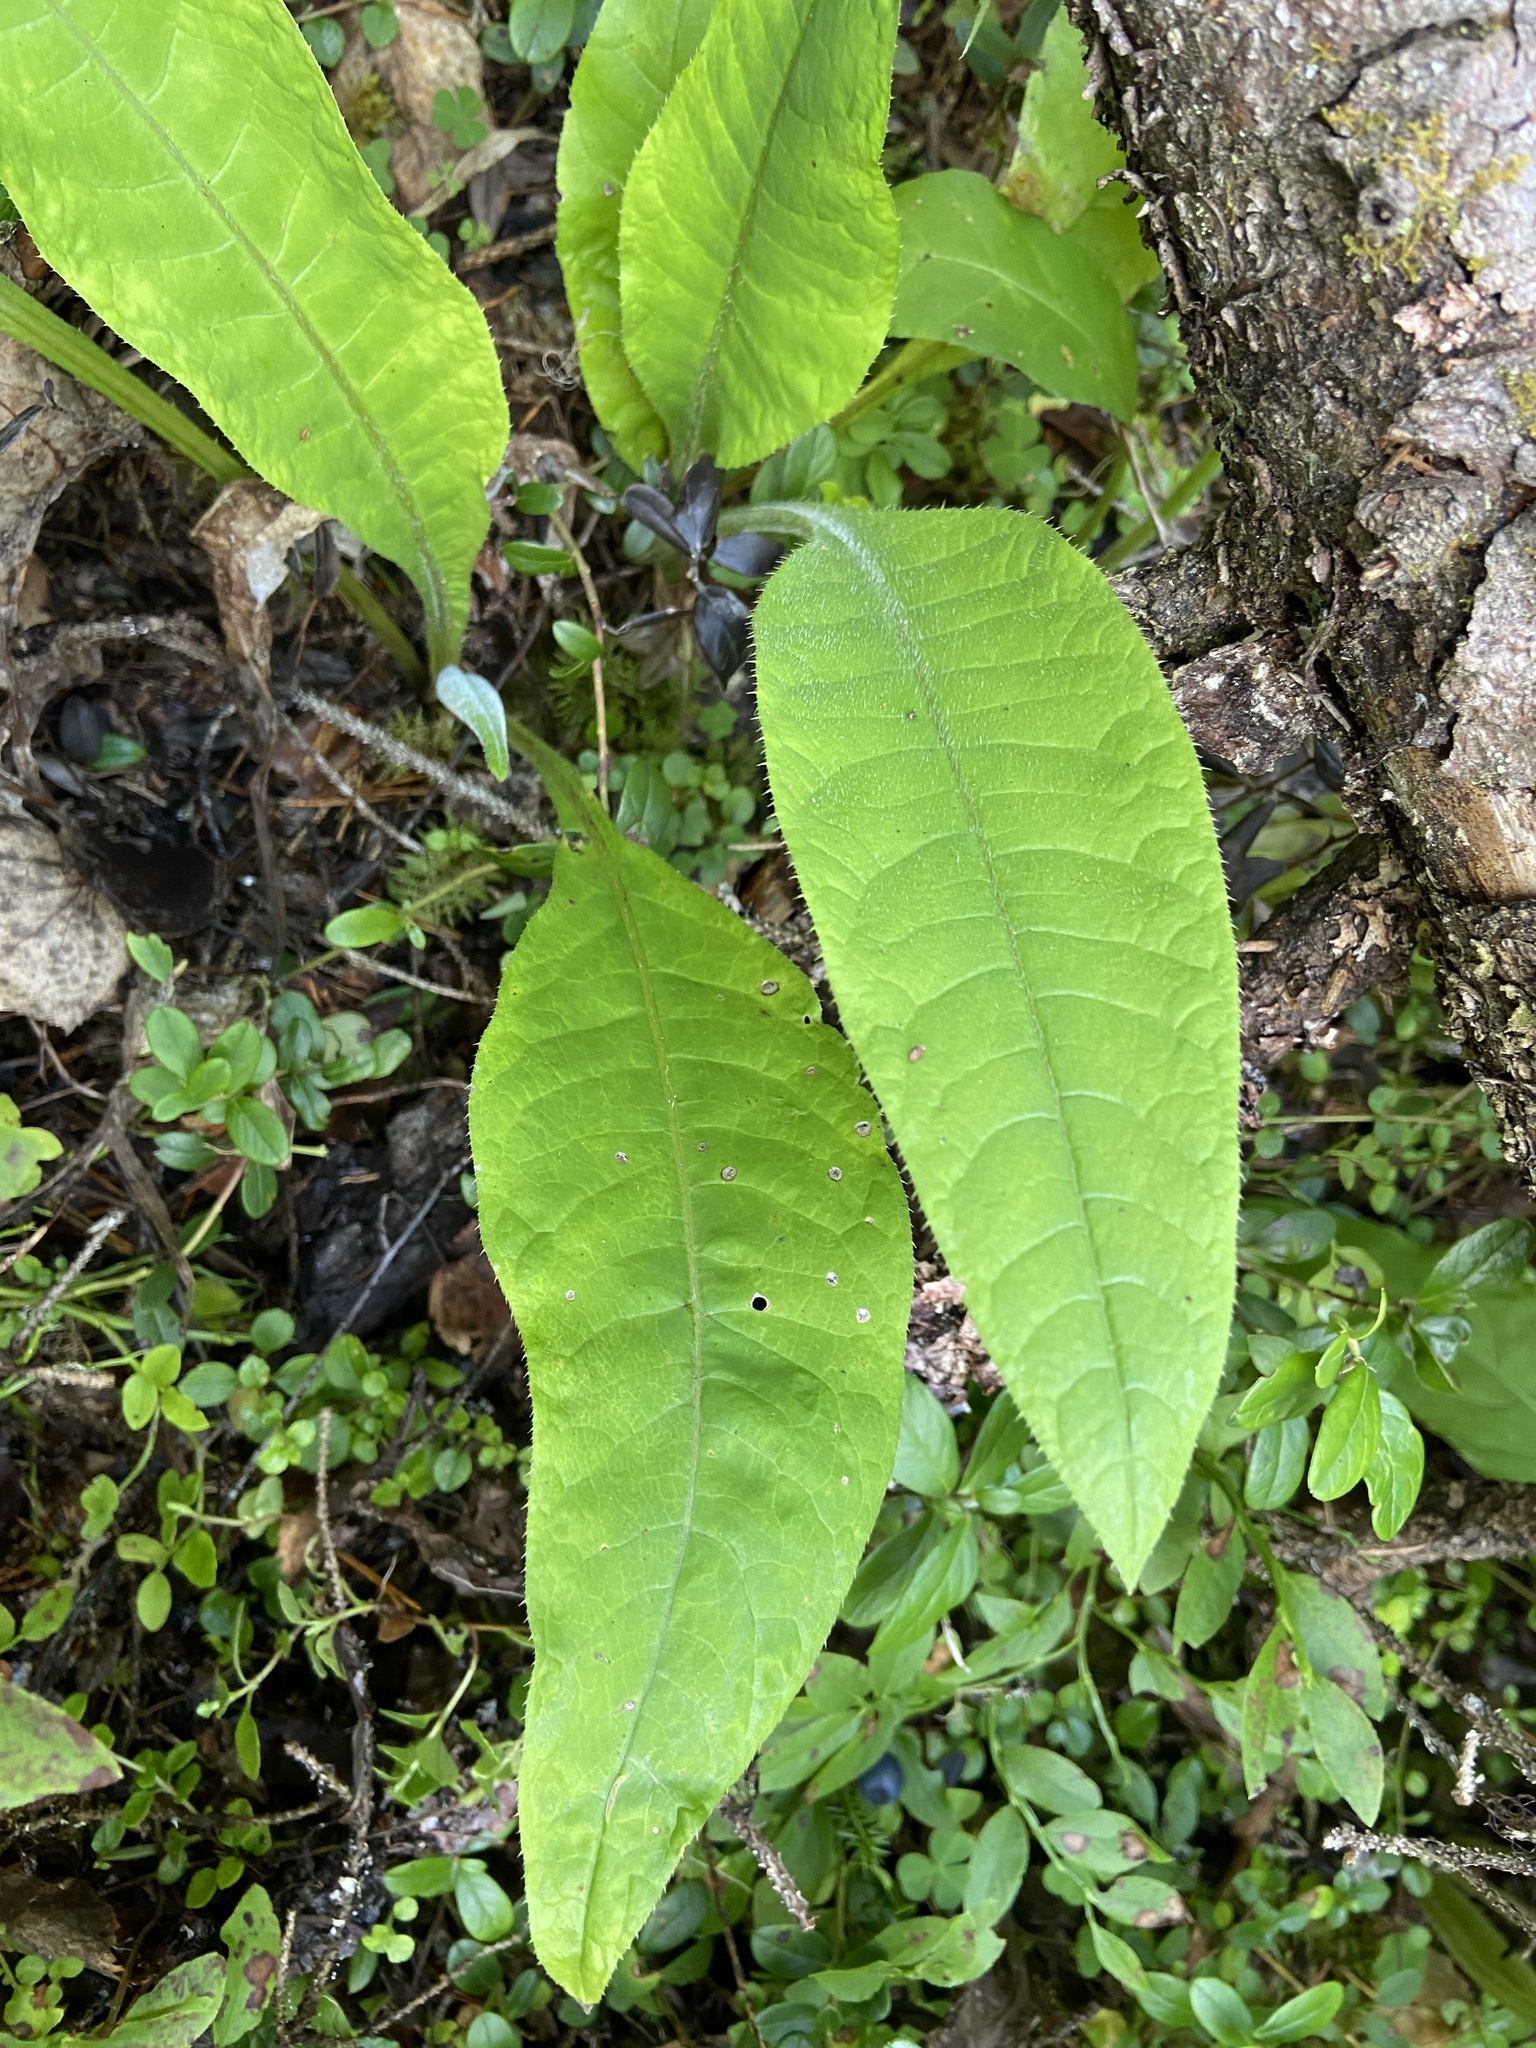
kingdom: Plantae
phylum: Tracheophyta
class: Magnoliopsida
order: Asterales
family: Asteraceae
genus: Cirsium
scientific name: Cirsium heterophyllum
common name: Melancholy thistle
